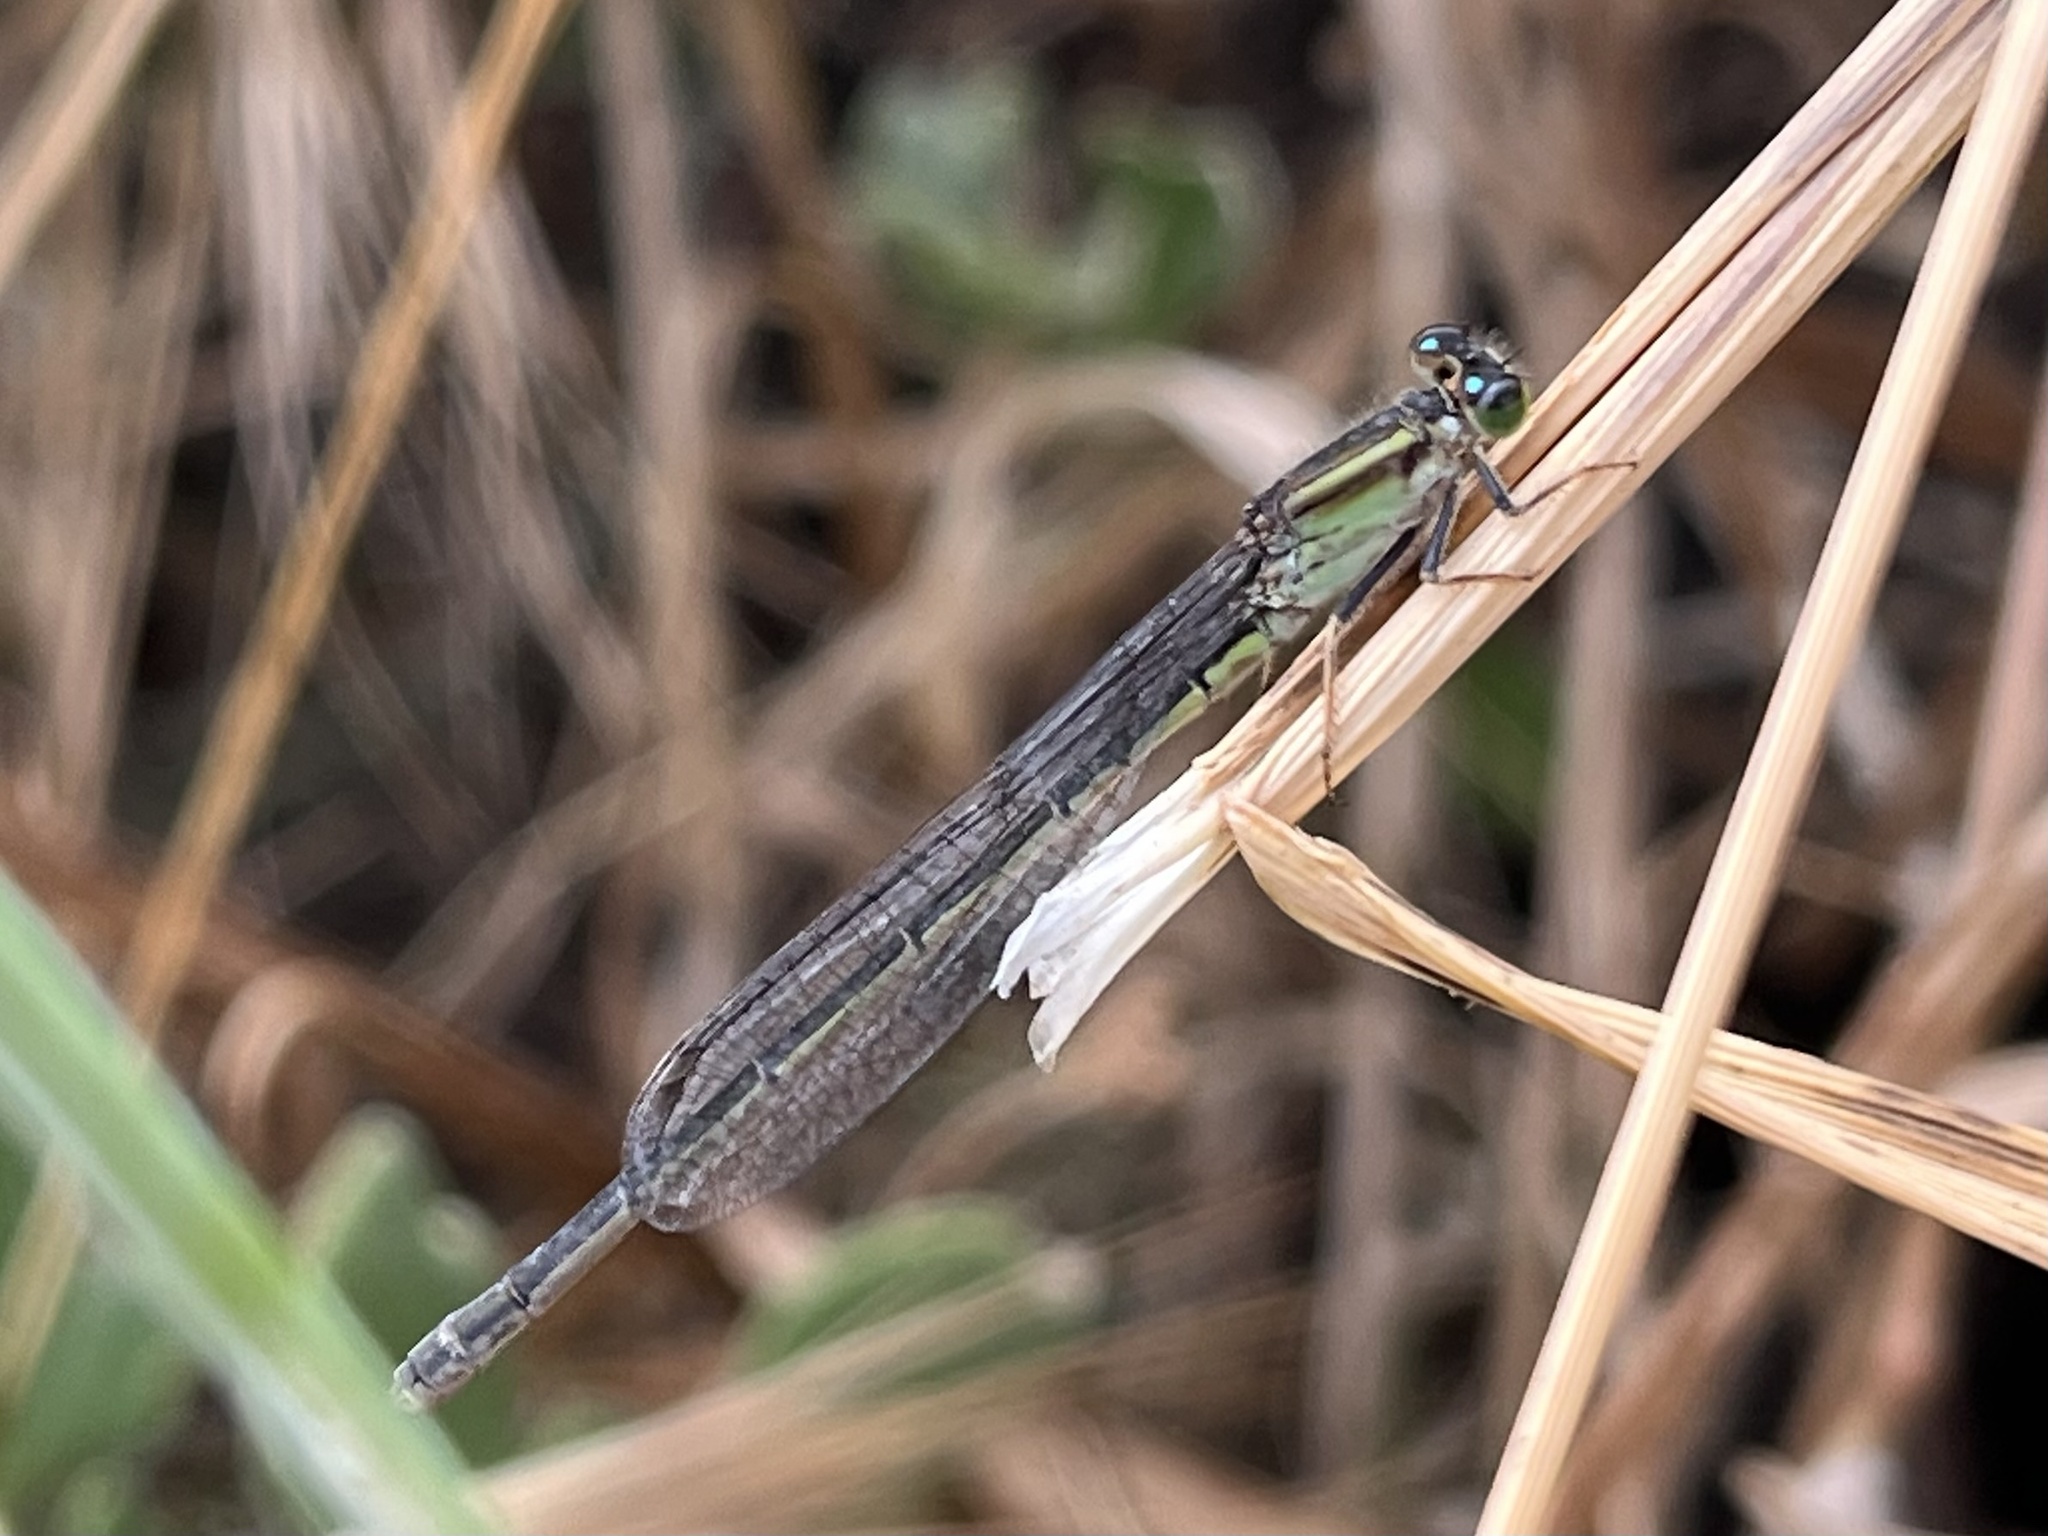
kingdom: Animalia
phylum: Arthropoda
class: Insecta
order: Odonata
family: Coenagrionidae
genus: Ischnura
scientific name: Ischnura senegalensis
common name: Tropical bluetail
